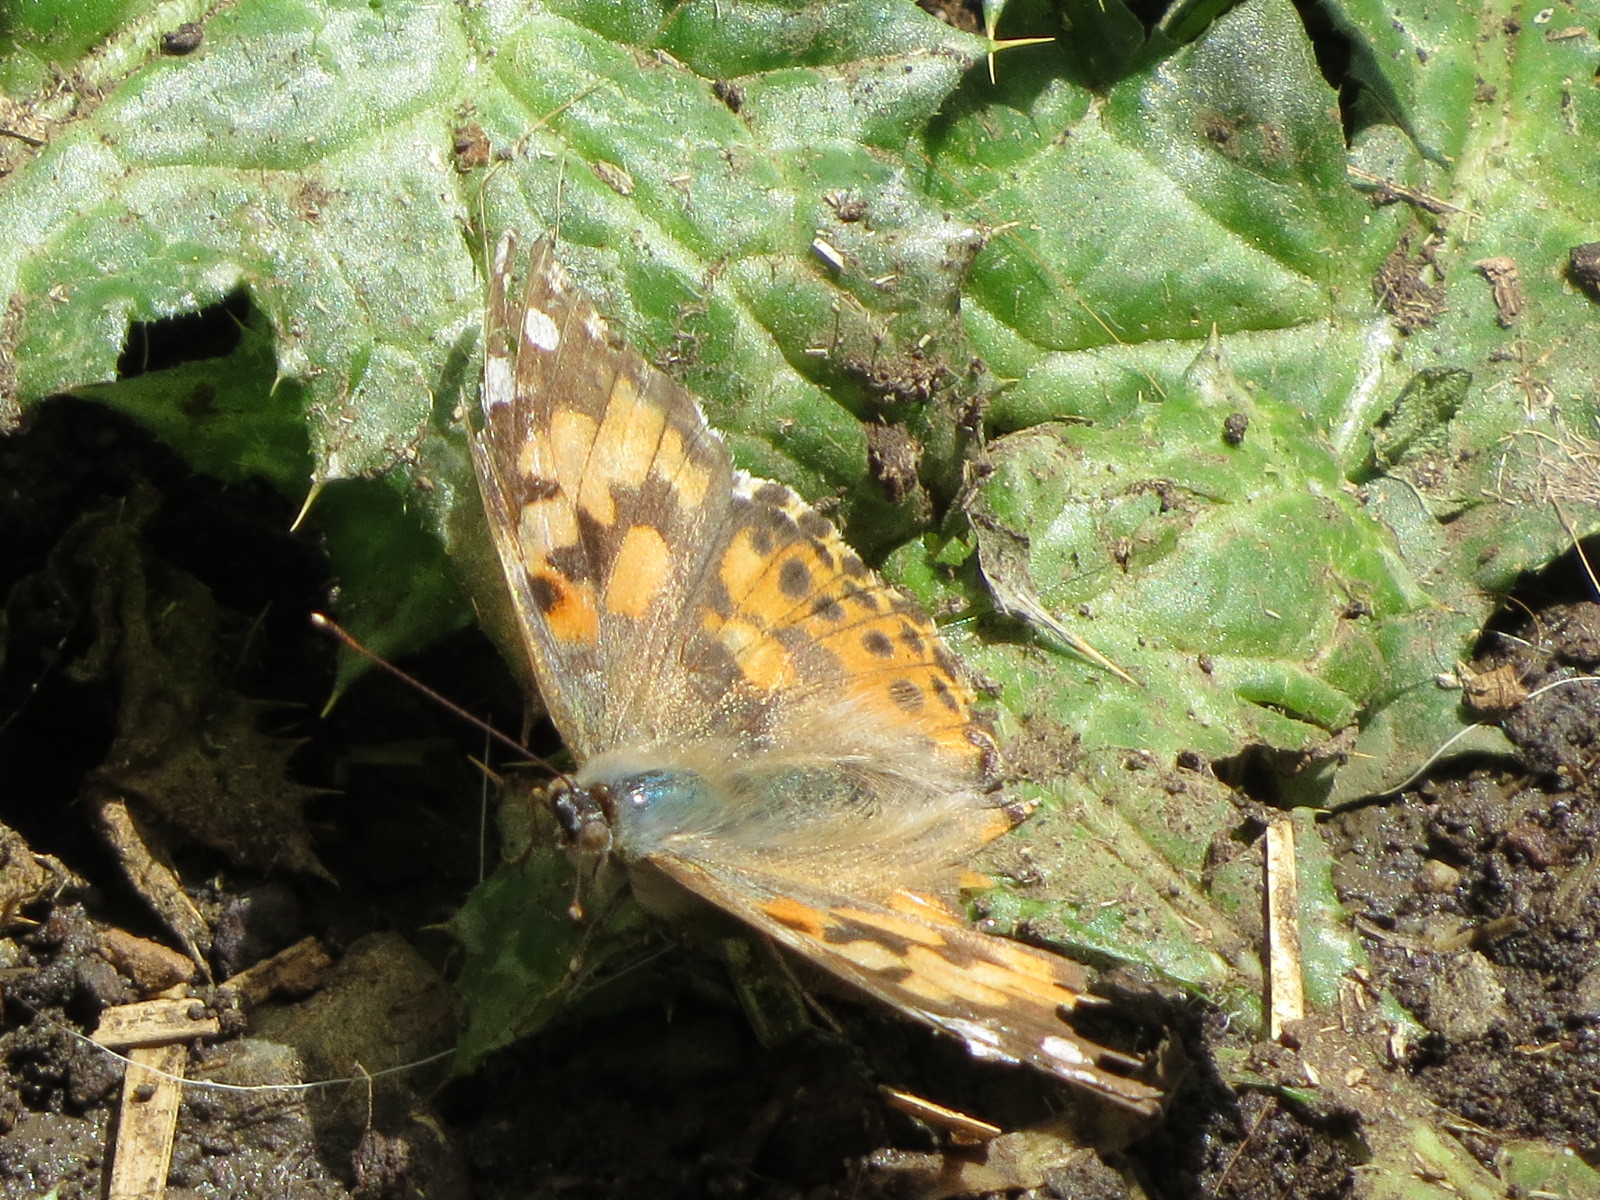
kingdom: Animalia
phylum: Arthropoda
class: Insecta
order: Lepidoptera
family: Nymphalidae
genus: Vanessa
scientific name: Vanessa cardui
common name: Painted lady
